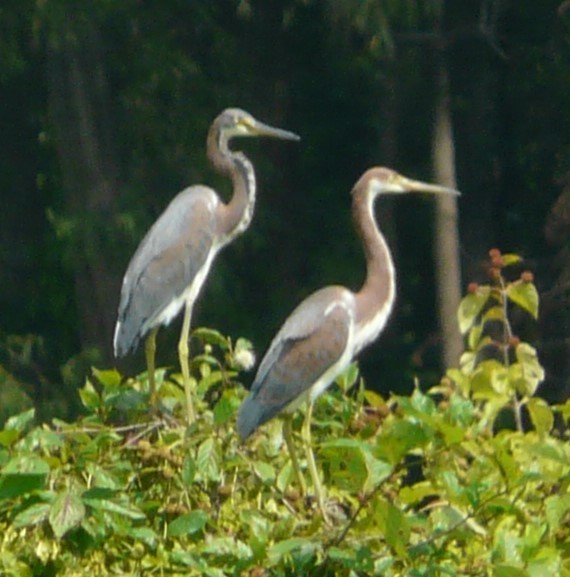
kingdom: Animalia
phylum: Chordata
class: Aves
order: Pelecaniformes
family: Ardeidae
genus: Egretta
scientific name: Egretta tricolor
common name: Tricolored heron
